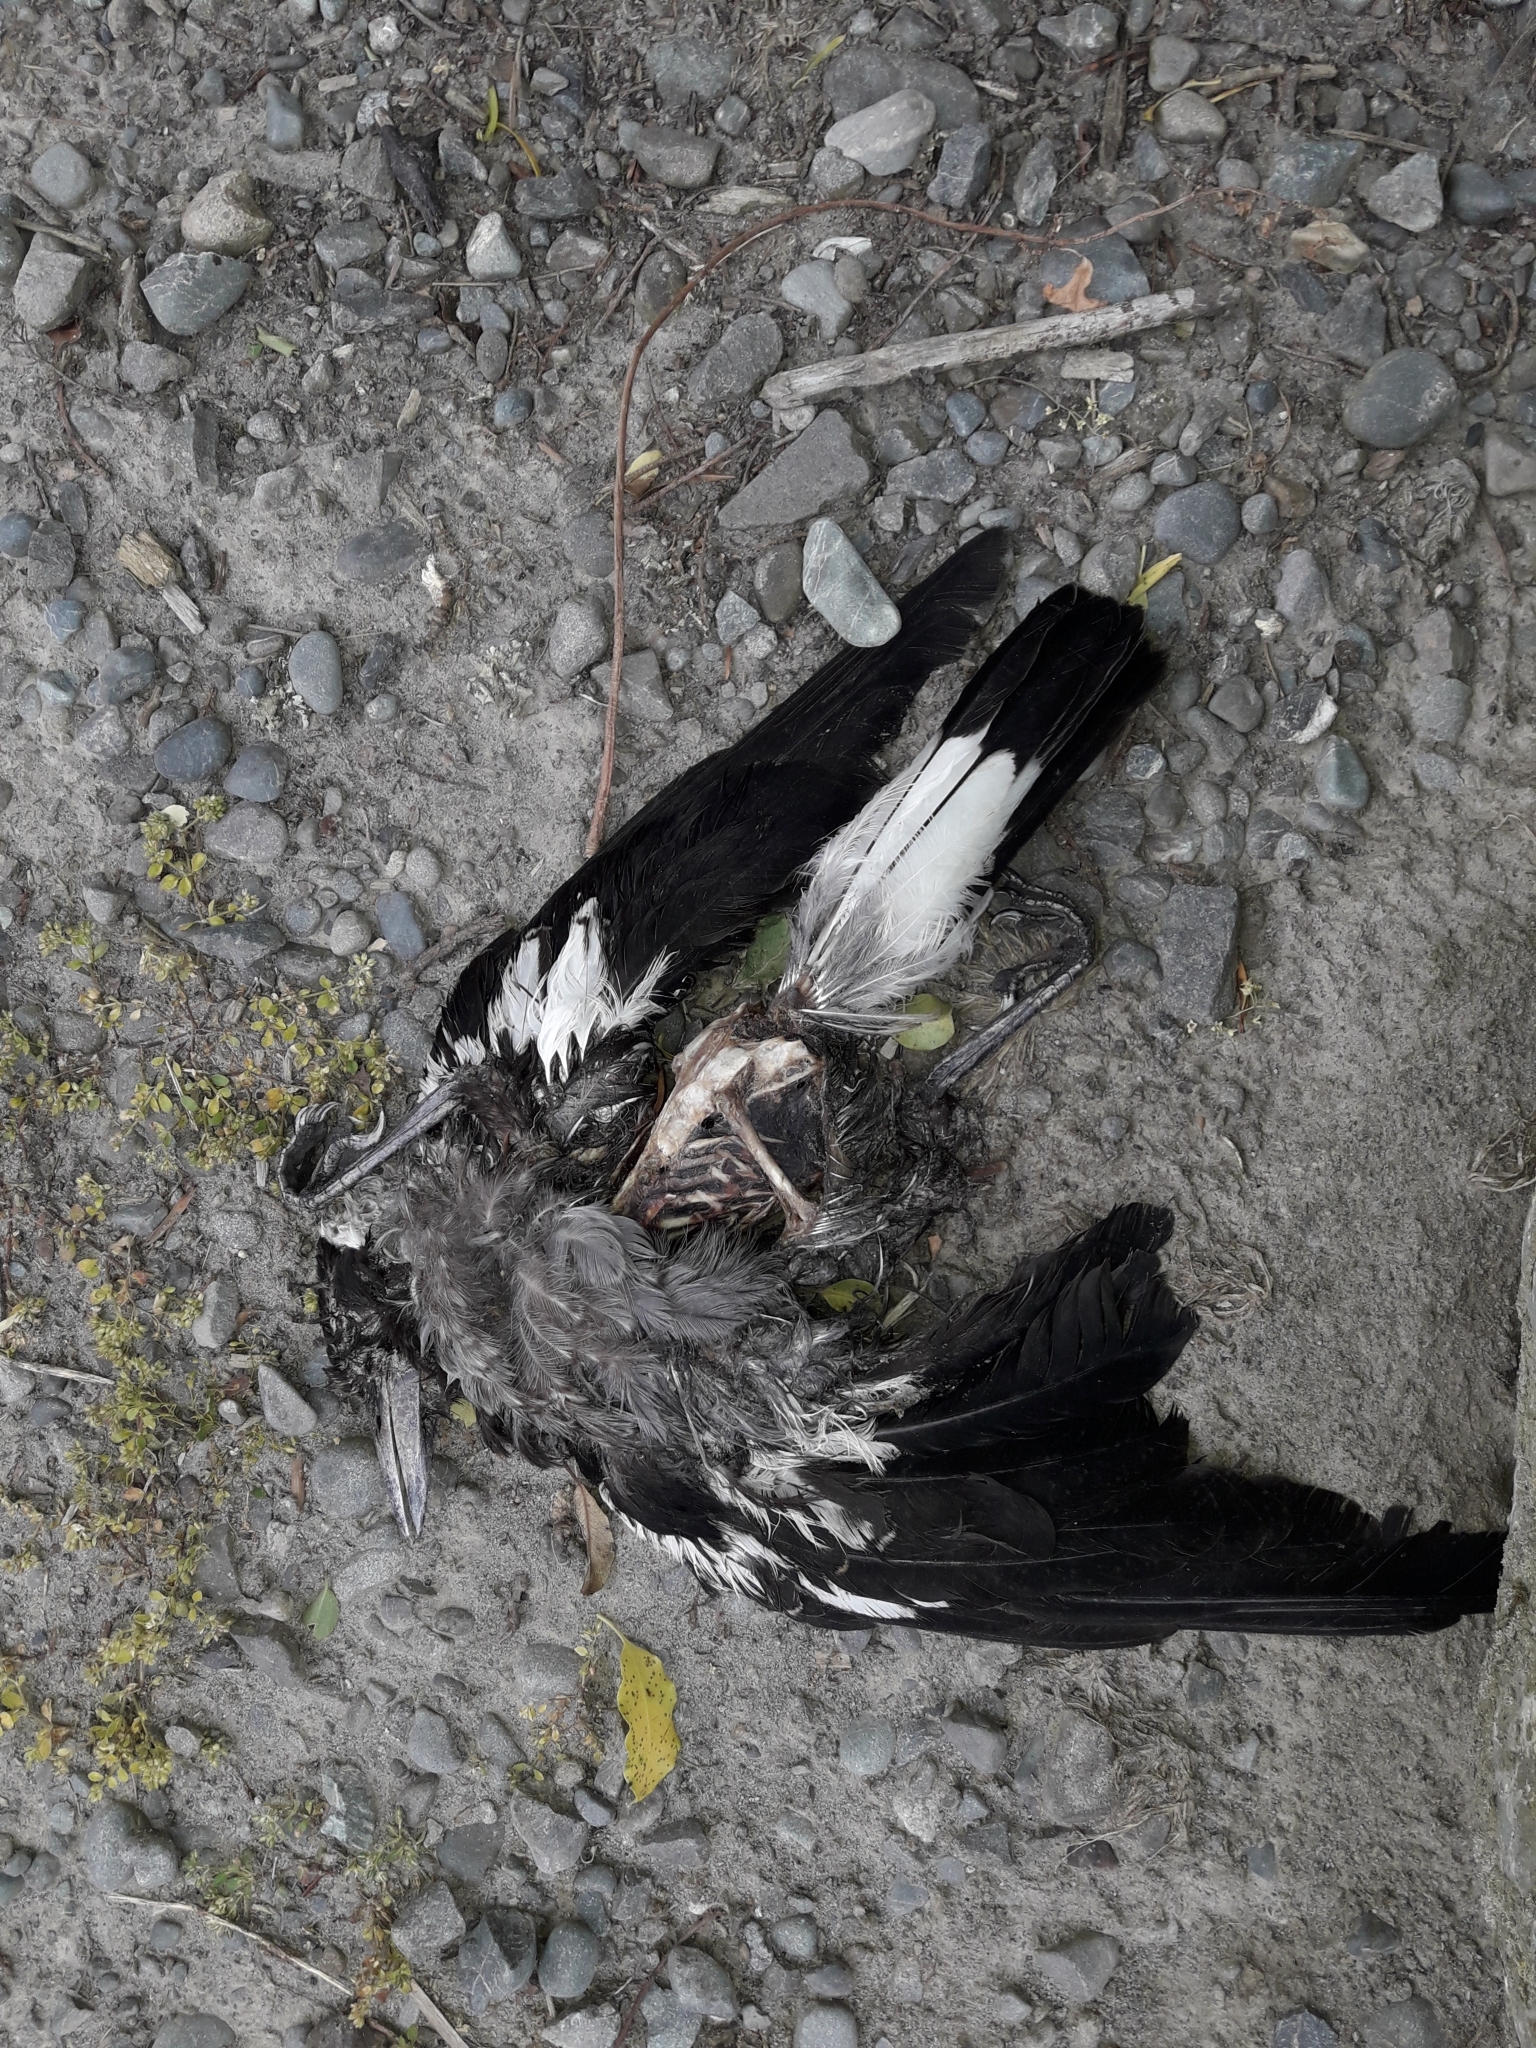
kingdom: Animalia
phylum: Chordata
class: Aves
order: Passeriformes
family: Cracticidae
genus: Gymnorhina
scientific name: Gymnorhina tibicen
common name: Australian magpie
